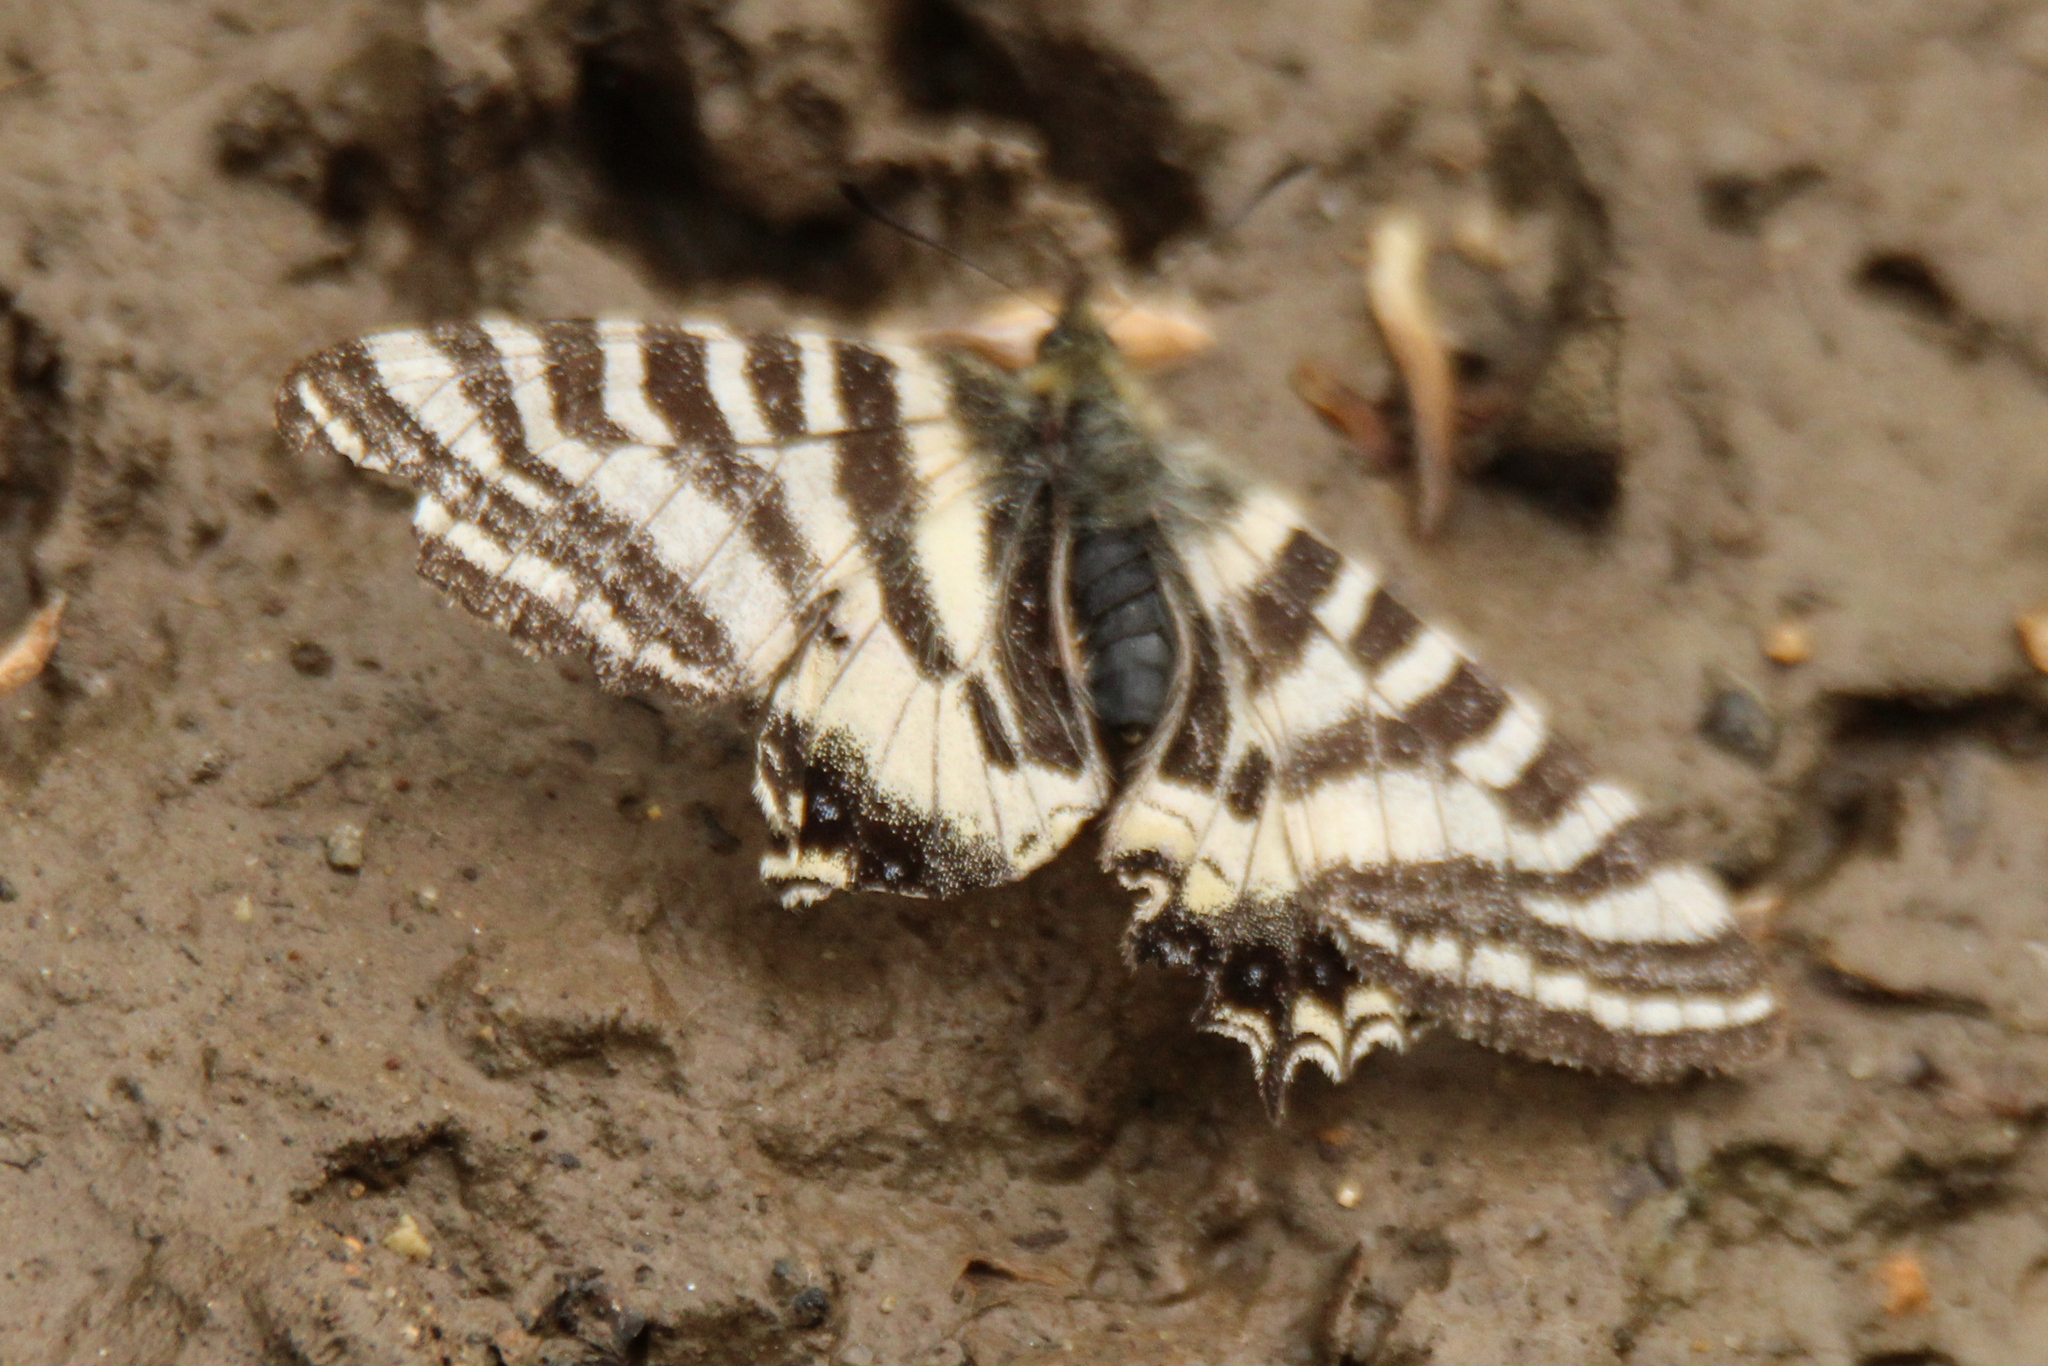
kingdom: Animalia
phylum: Arthropoda
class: Insecta
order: Lepidoptera
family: Papilionidae
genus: Luehdorfia
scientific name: Luehdorfia puziloi
